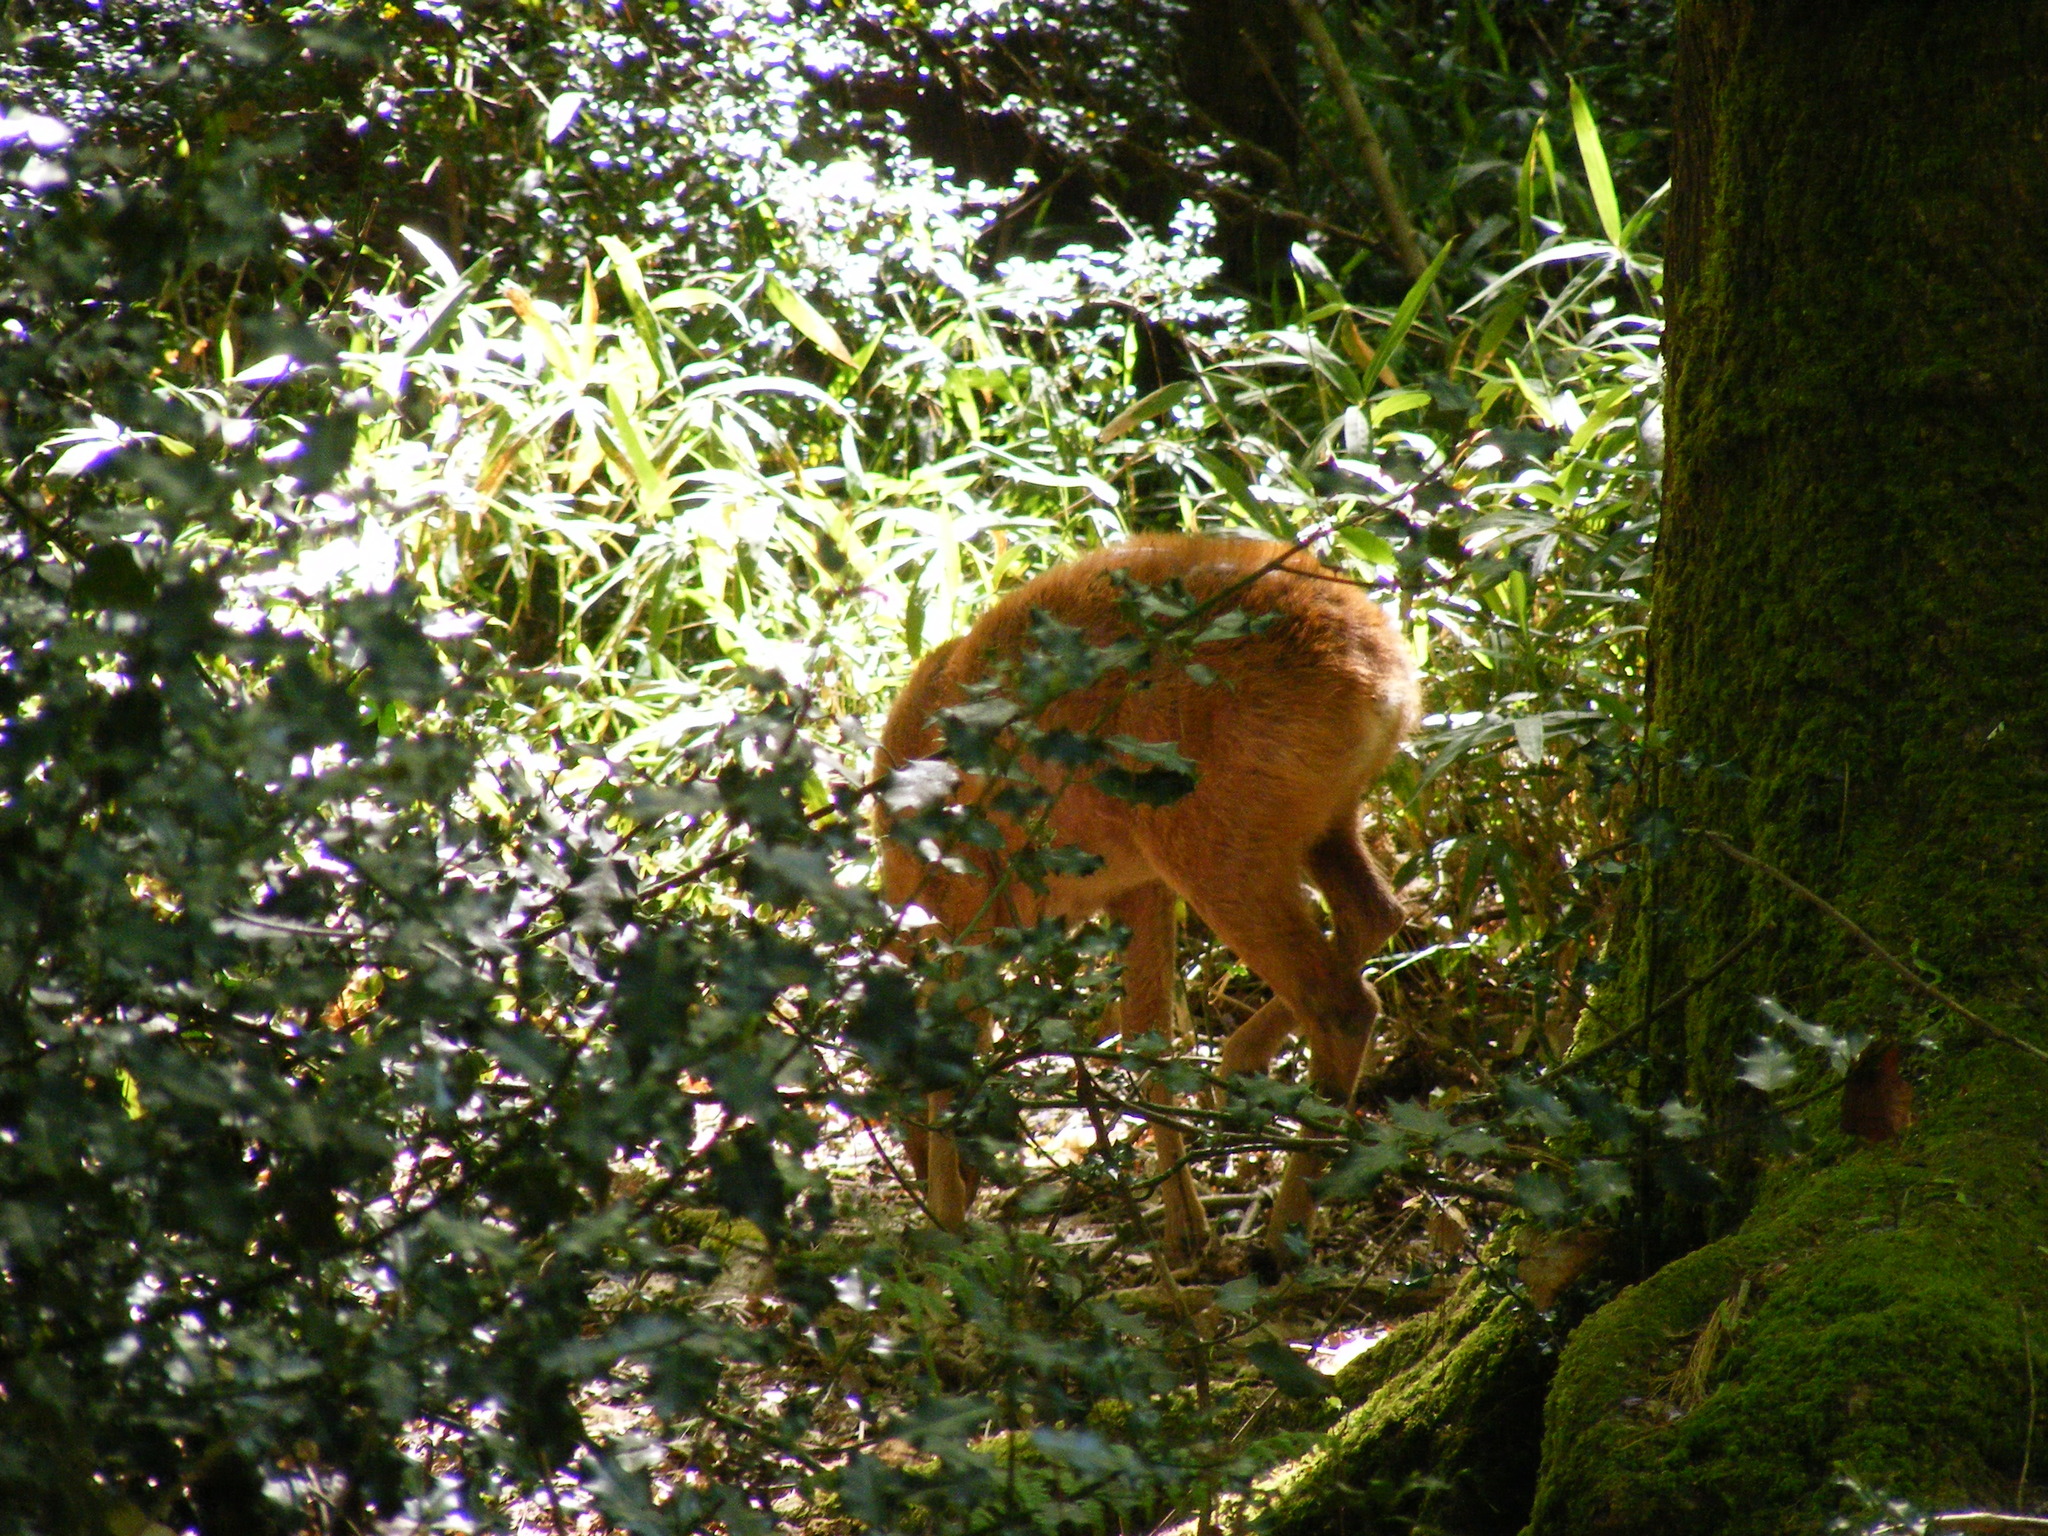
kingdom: Animalia
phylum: Chordata
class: Mammalia
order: Artiodactyla
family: Cervidae
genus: Capreolus
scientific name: Capreolus capreolus
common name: Western roe deer
